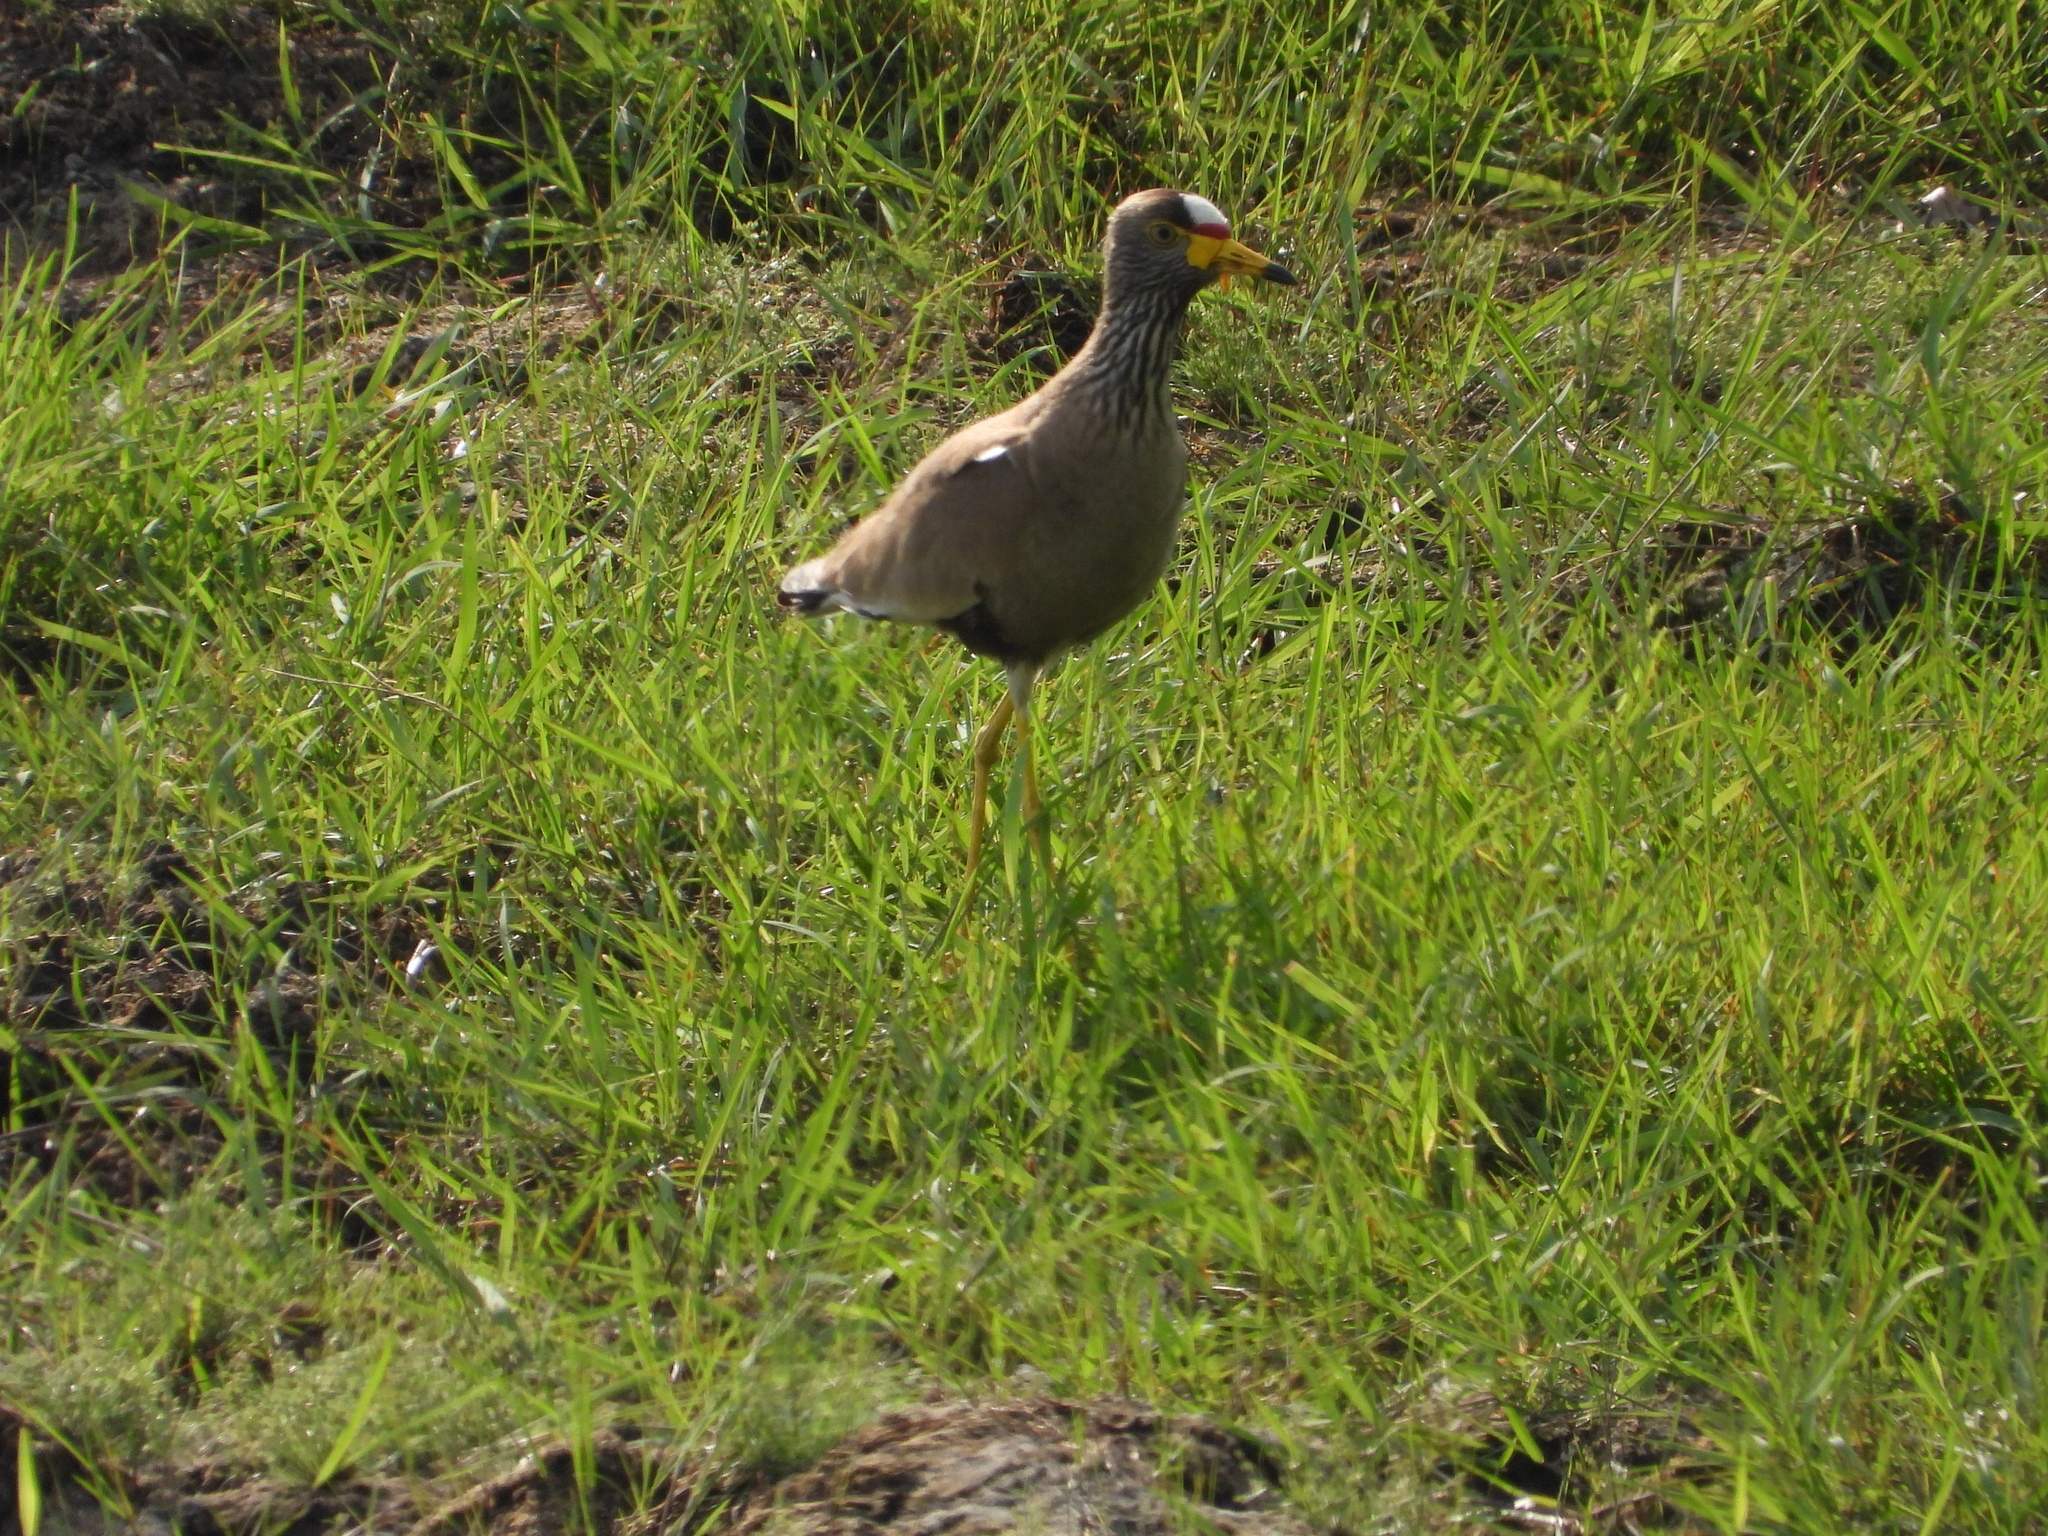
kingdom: Animalia
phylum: Chordata
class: Aves
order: Charadriiformes
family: Charadriidae
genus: Vanellus
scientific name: Vanellus senegallus
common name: African wattled lapwing
